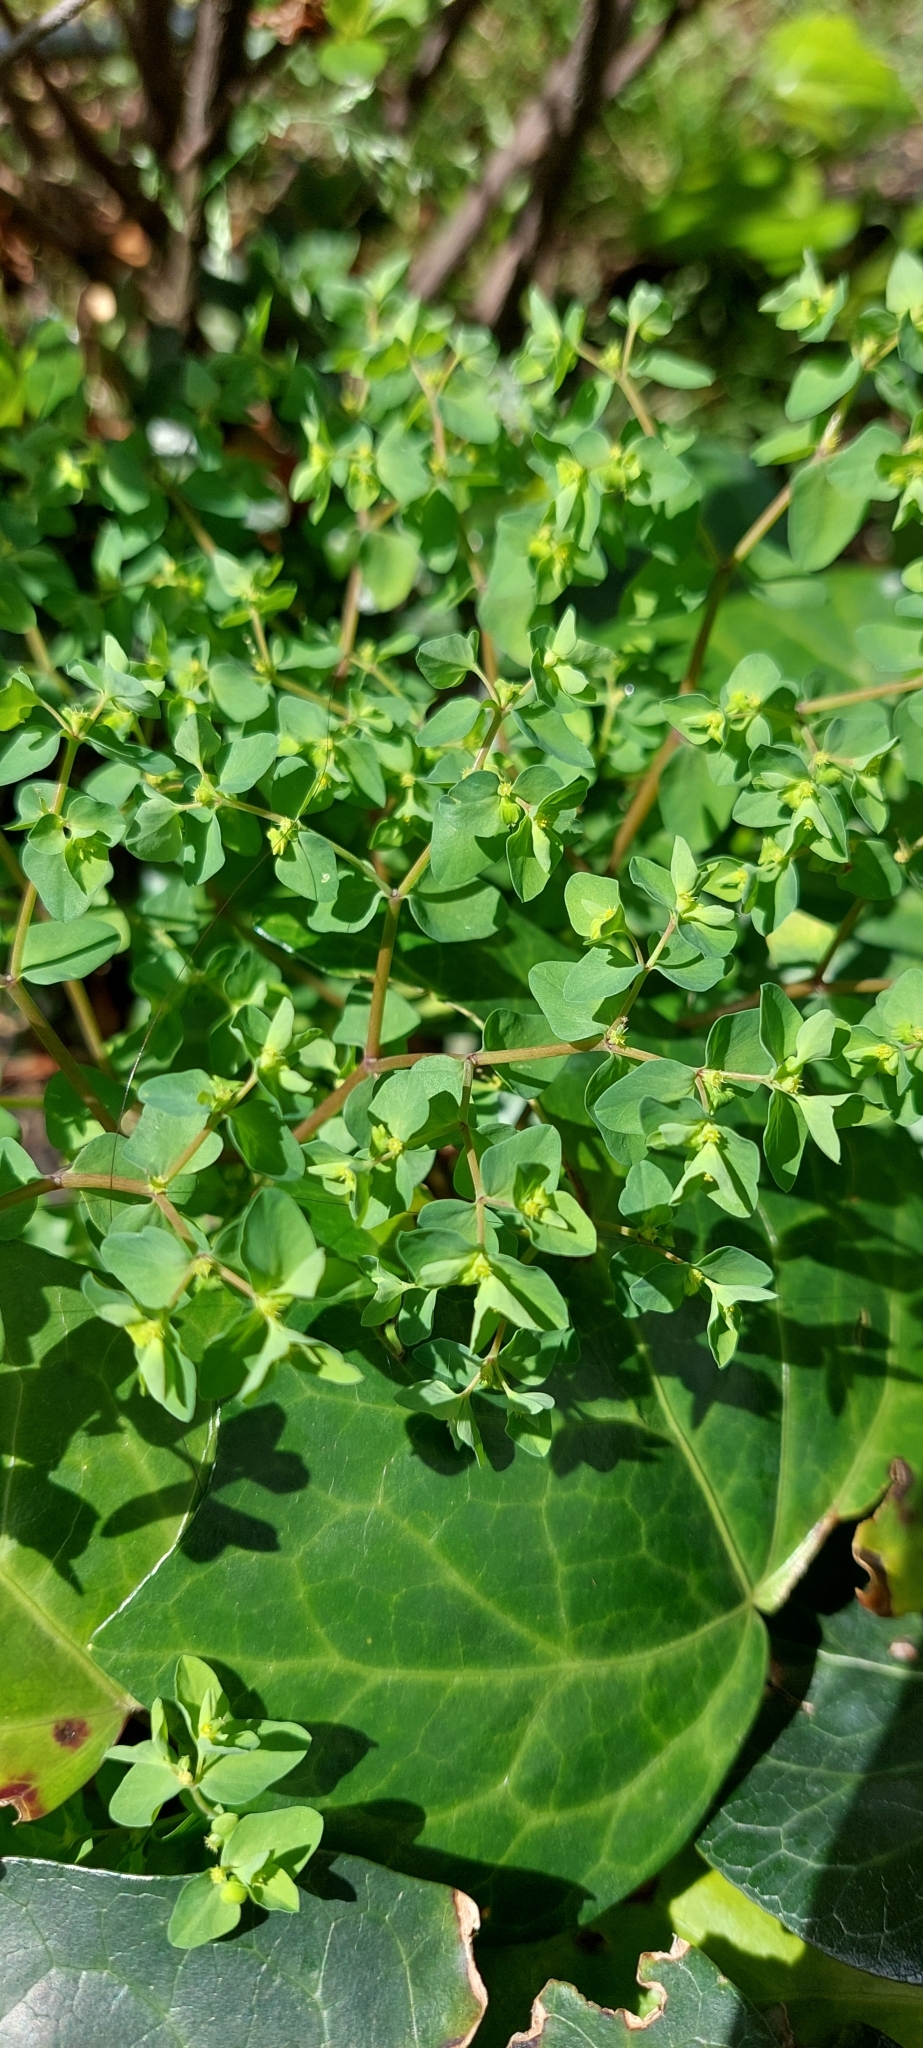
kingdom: Plantae
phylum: Tracheophyta
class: Magnoliopsida
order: Malpighiales
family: Euphorbiaceae
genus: Euphorbia
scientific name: Euphorbia peplus
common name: Petty spurge
